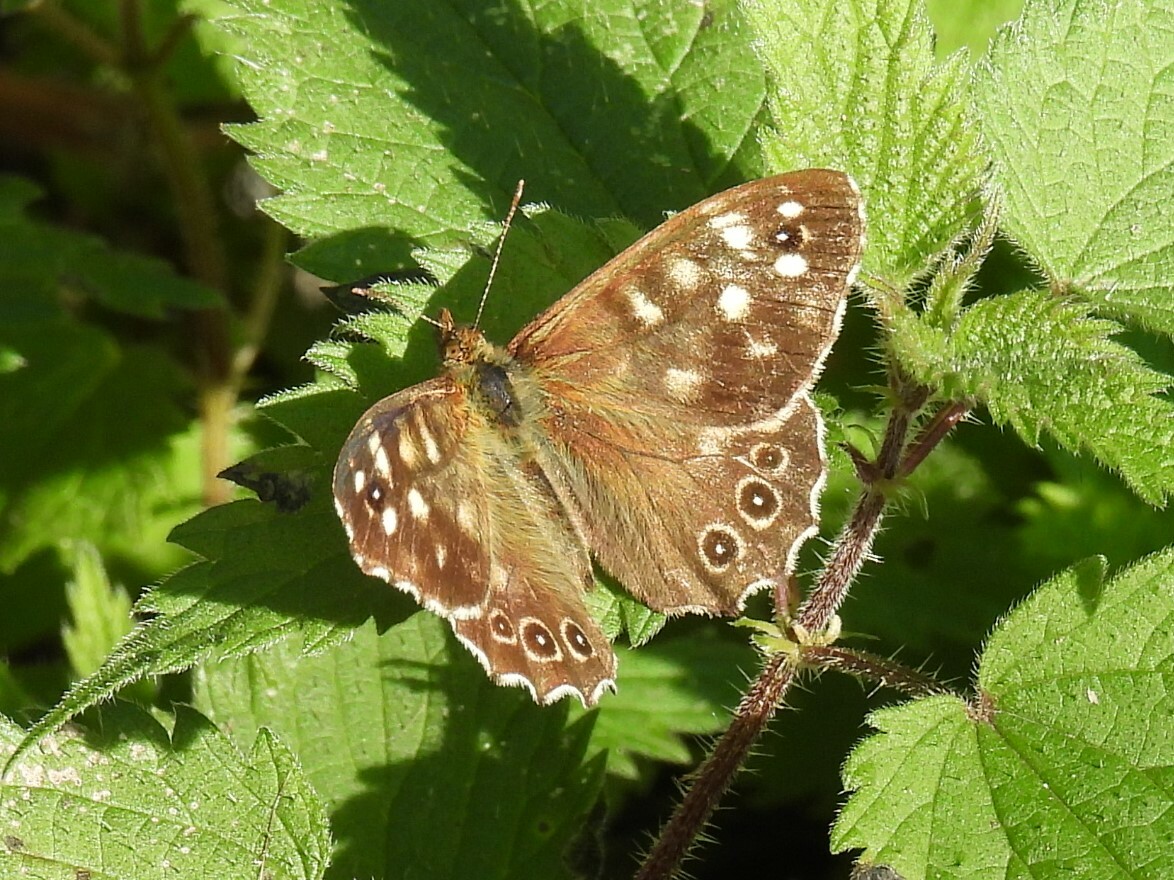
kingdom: Animalia
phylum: Arthropoda
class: Insecta
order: Lepidoptera
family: Nymphalidae
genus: Pararge
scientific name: Pararge aegeria
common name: Speckled wood
